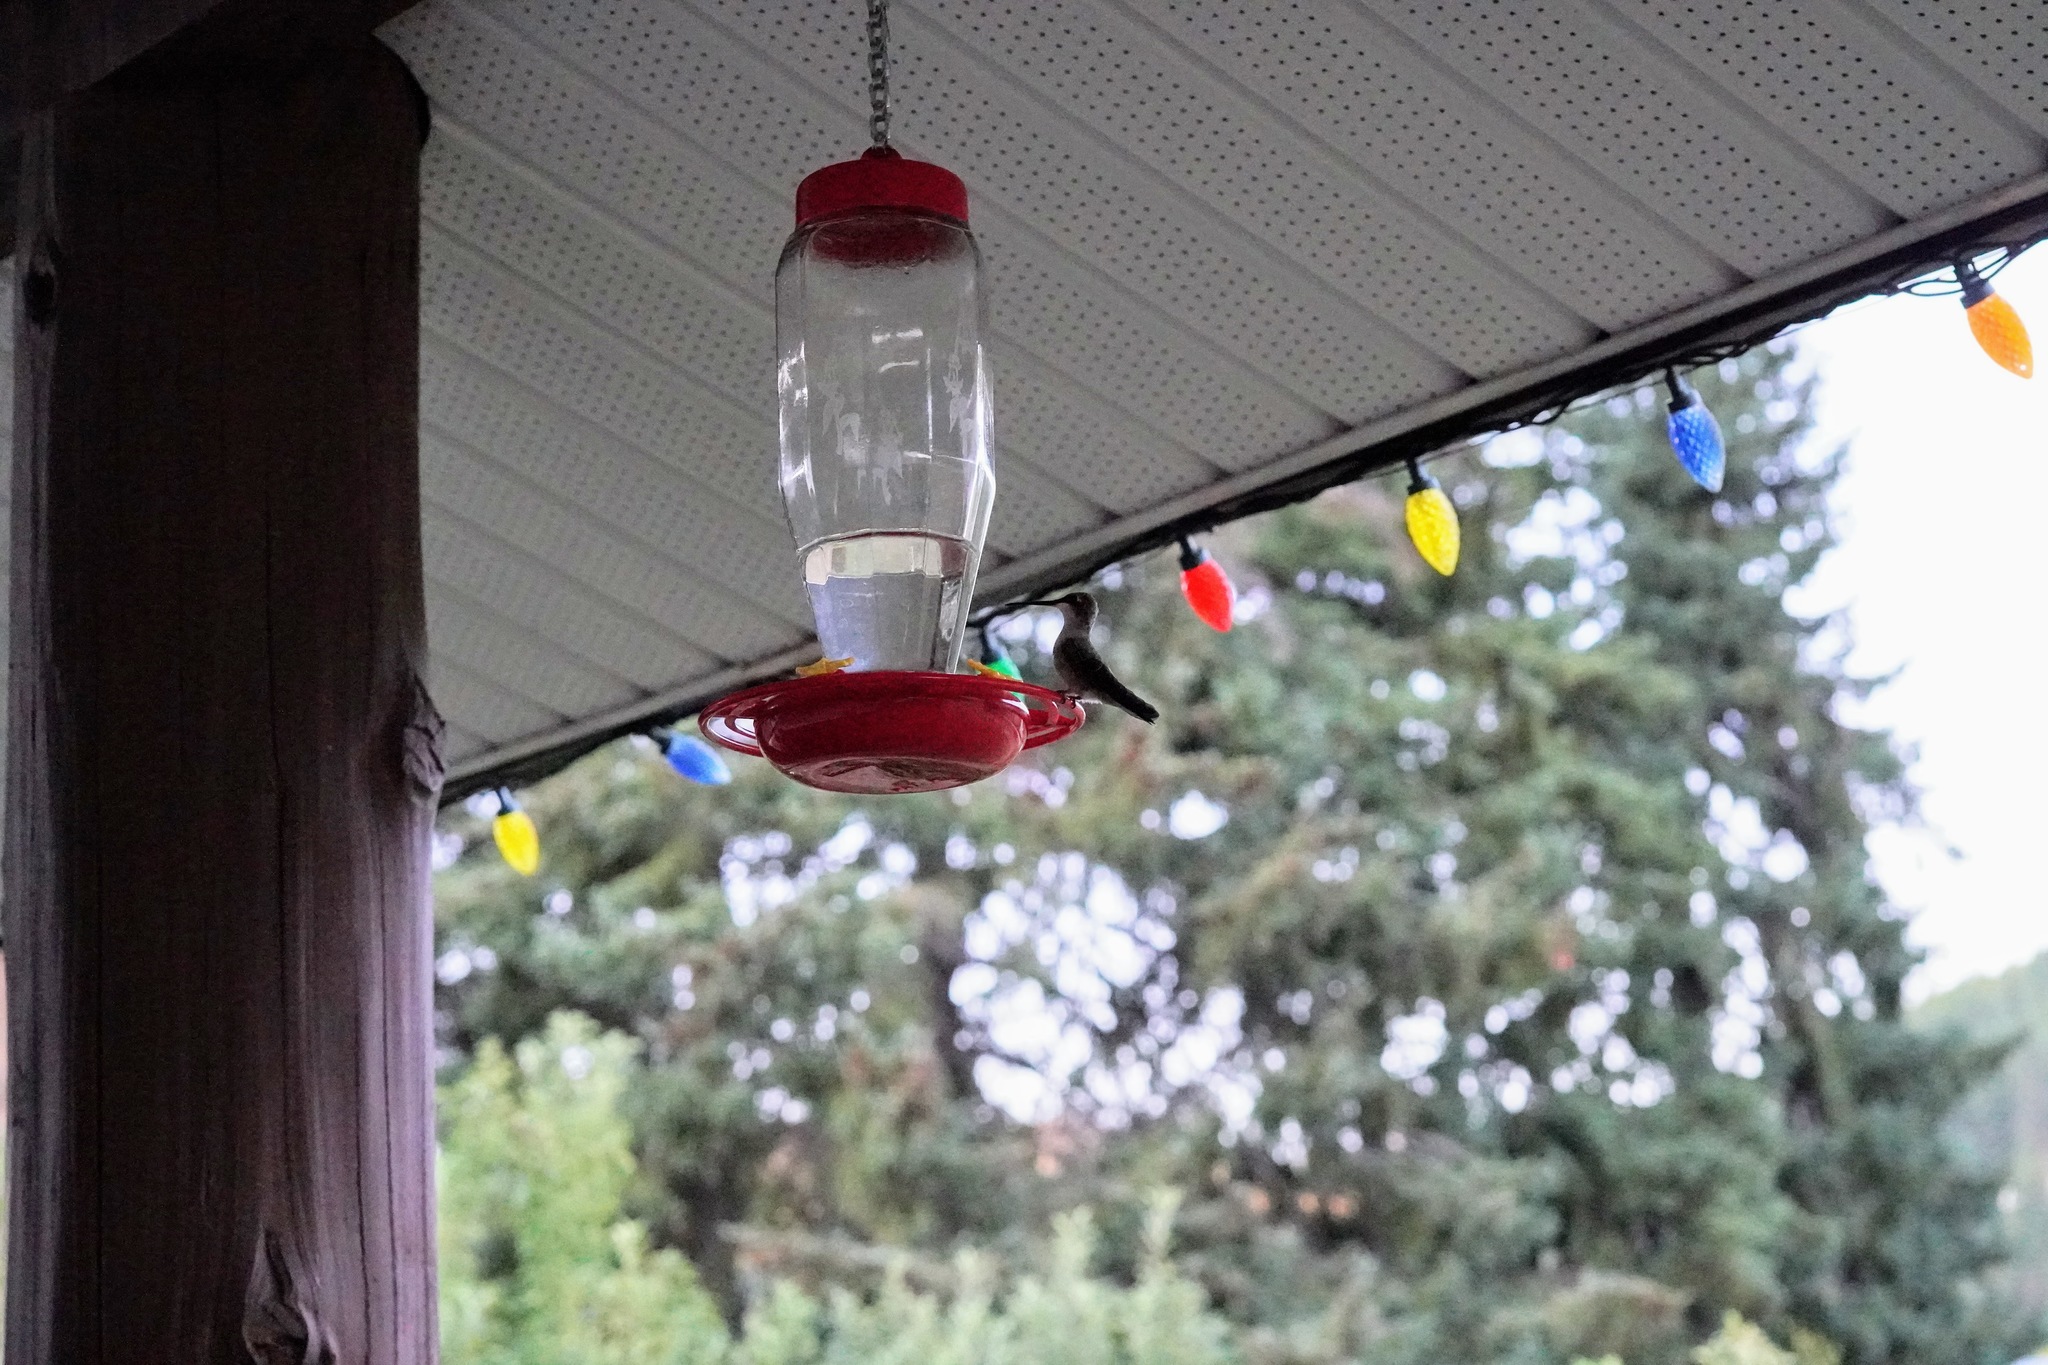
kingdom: Animalia
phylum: Chordata
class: Aves
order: Apodiformes
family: Trochilidae
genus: Archilochus
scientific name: Archilochus alexandri
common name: Black-chinned hummingbird
